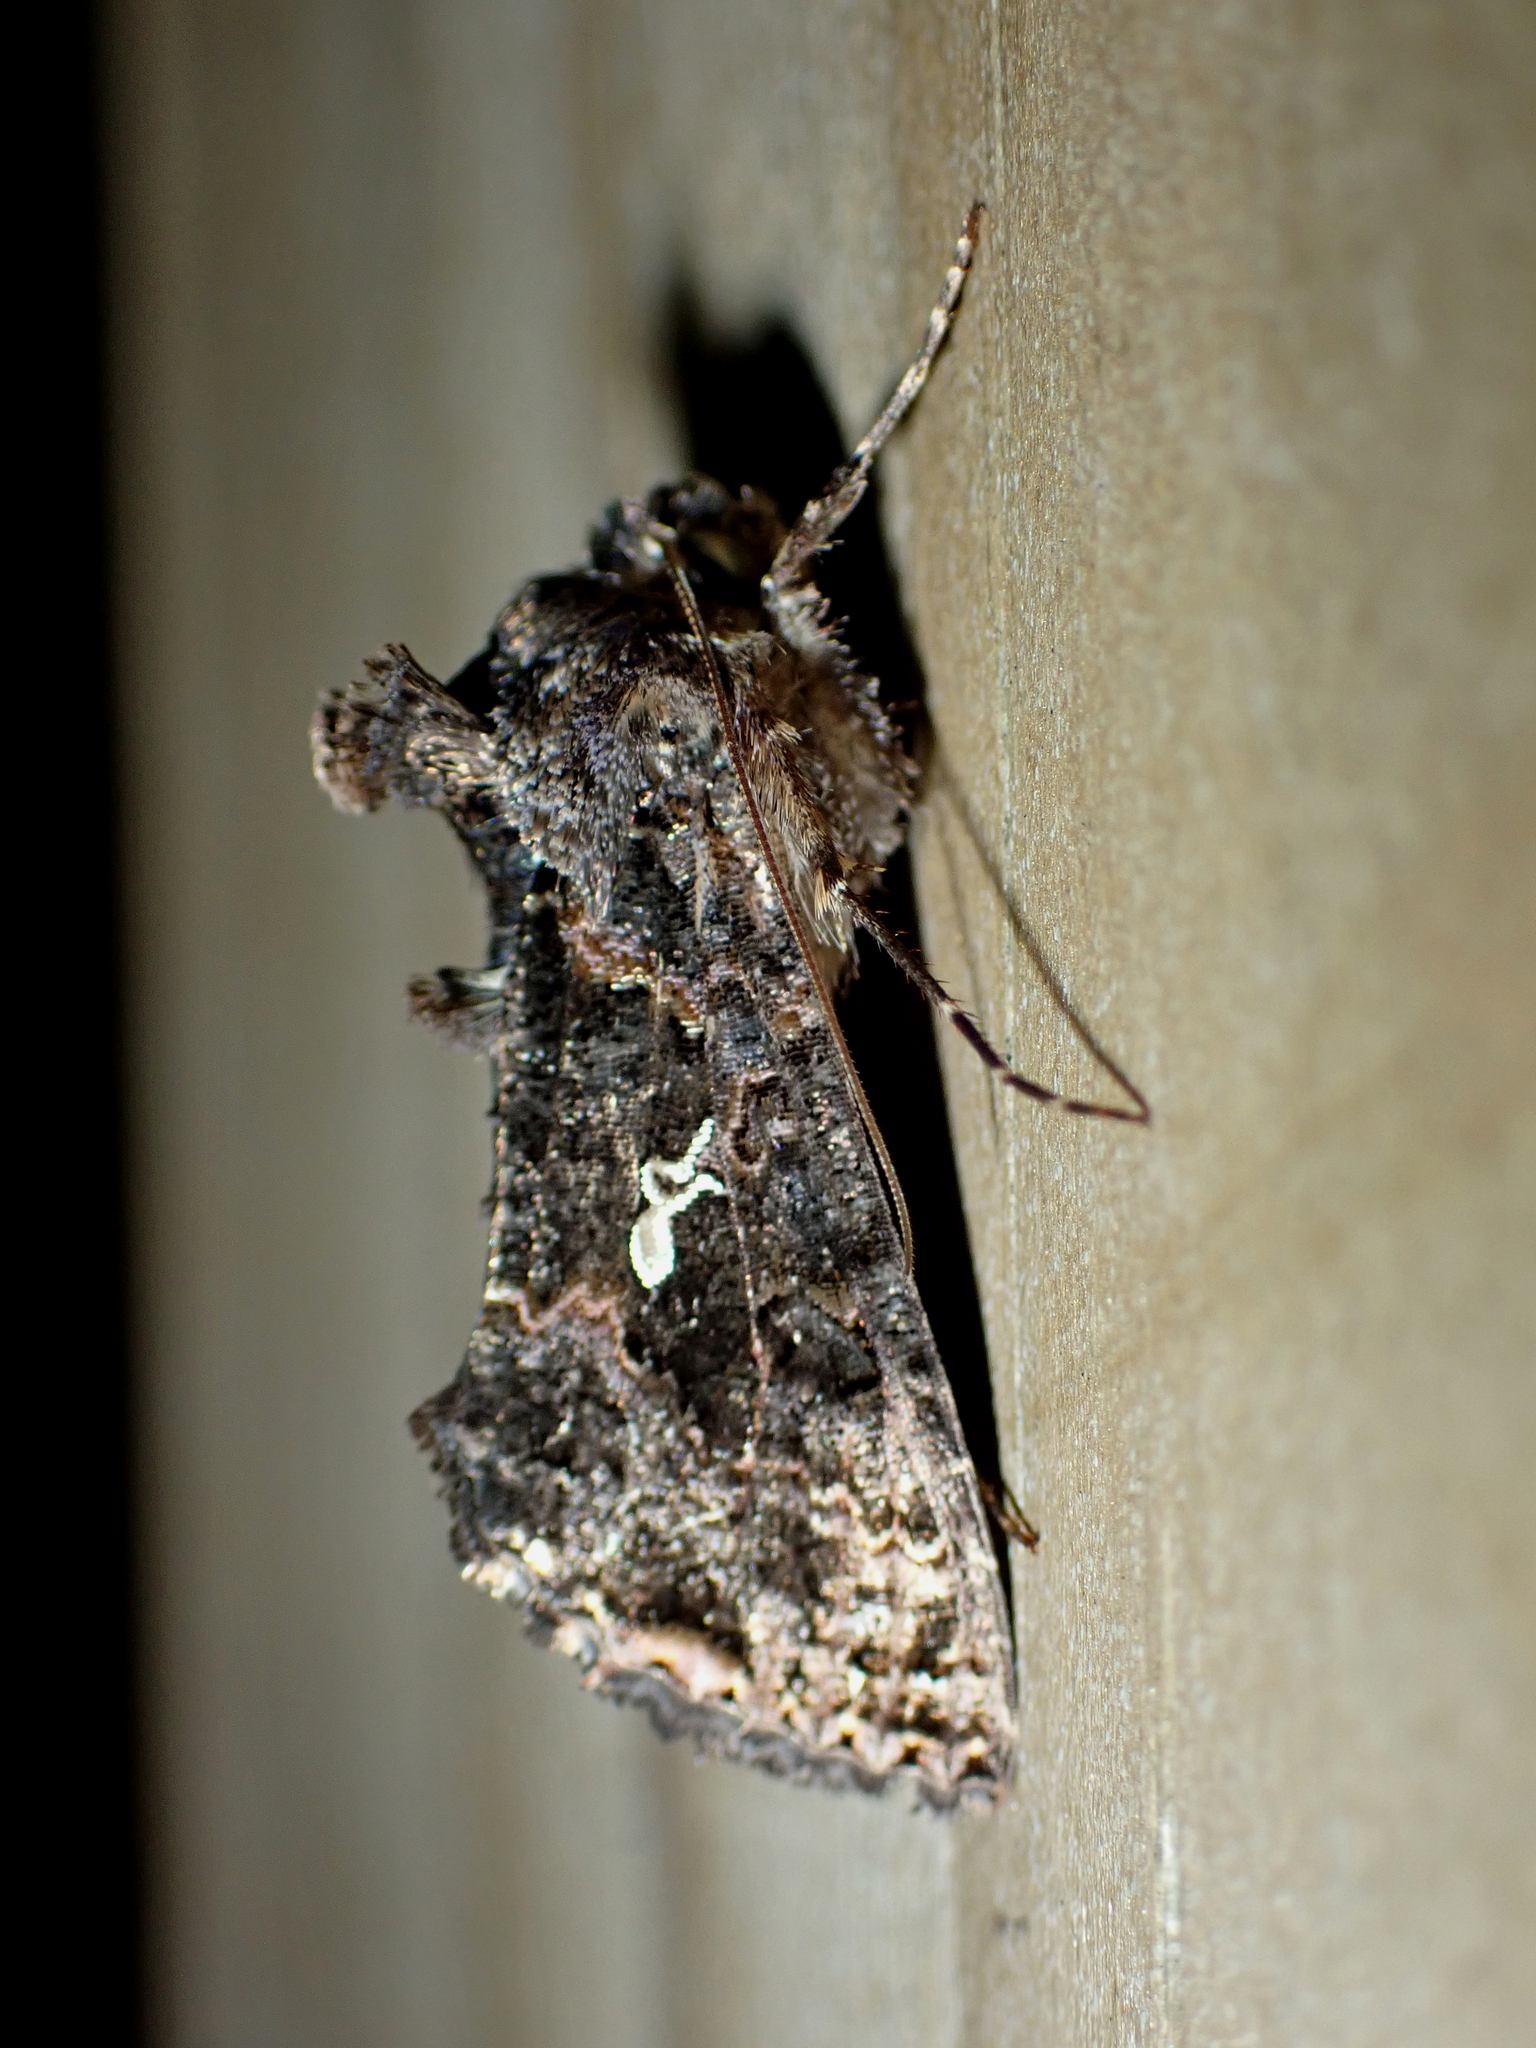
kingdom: Animalia
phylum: Arthropoda
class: Insecta
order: Lepidoptera
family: Noctuidae
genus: Ctenoplusia
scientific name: Ctenoplusia limbirena
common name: Scar bank gem
